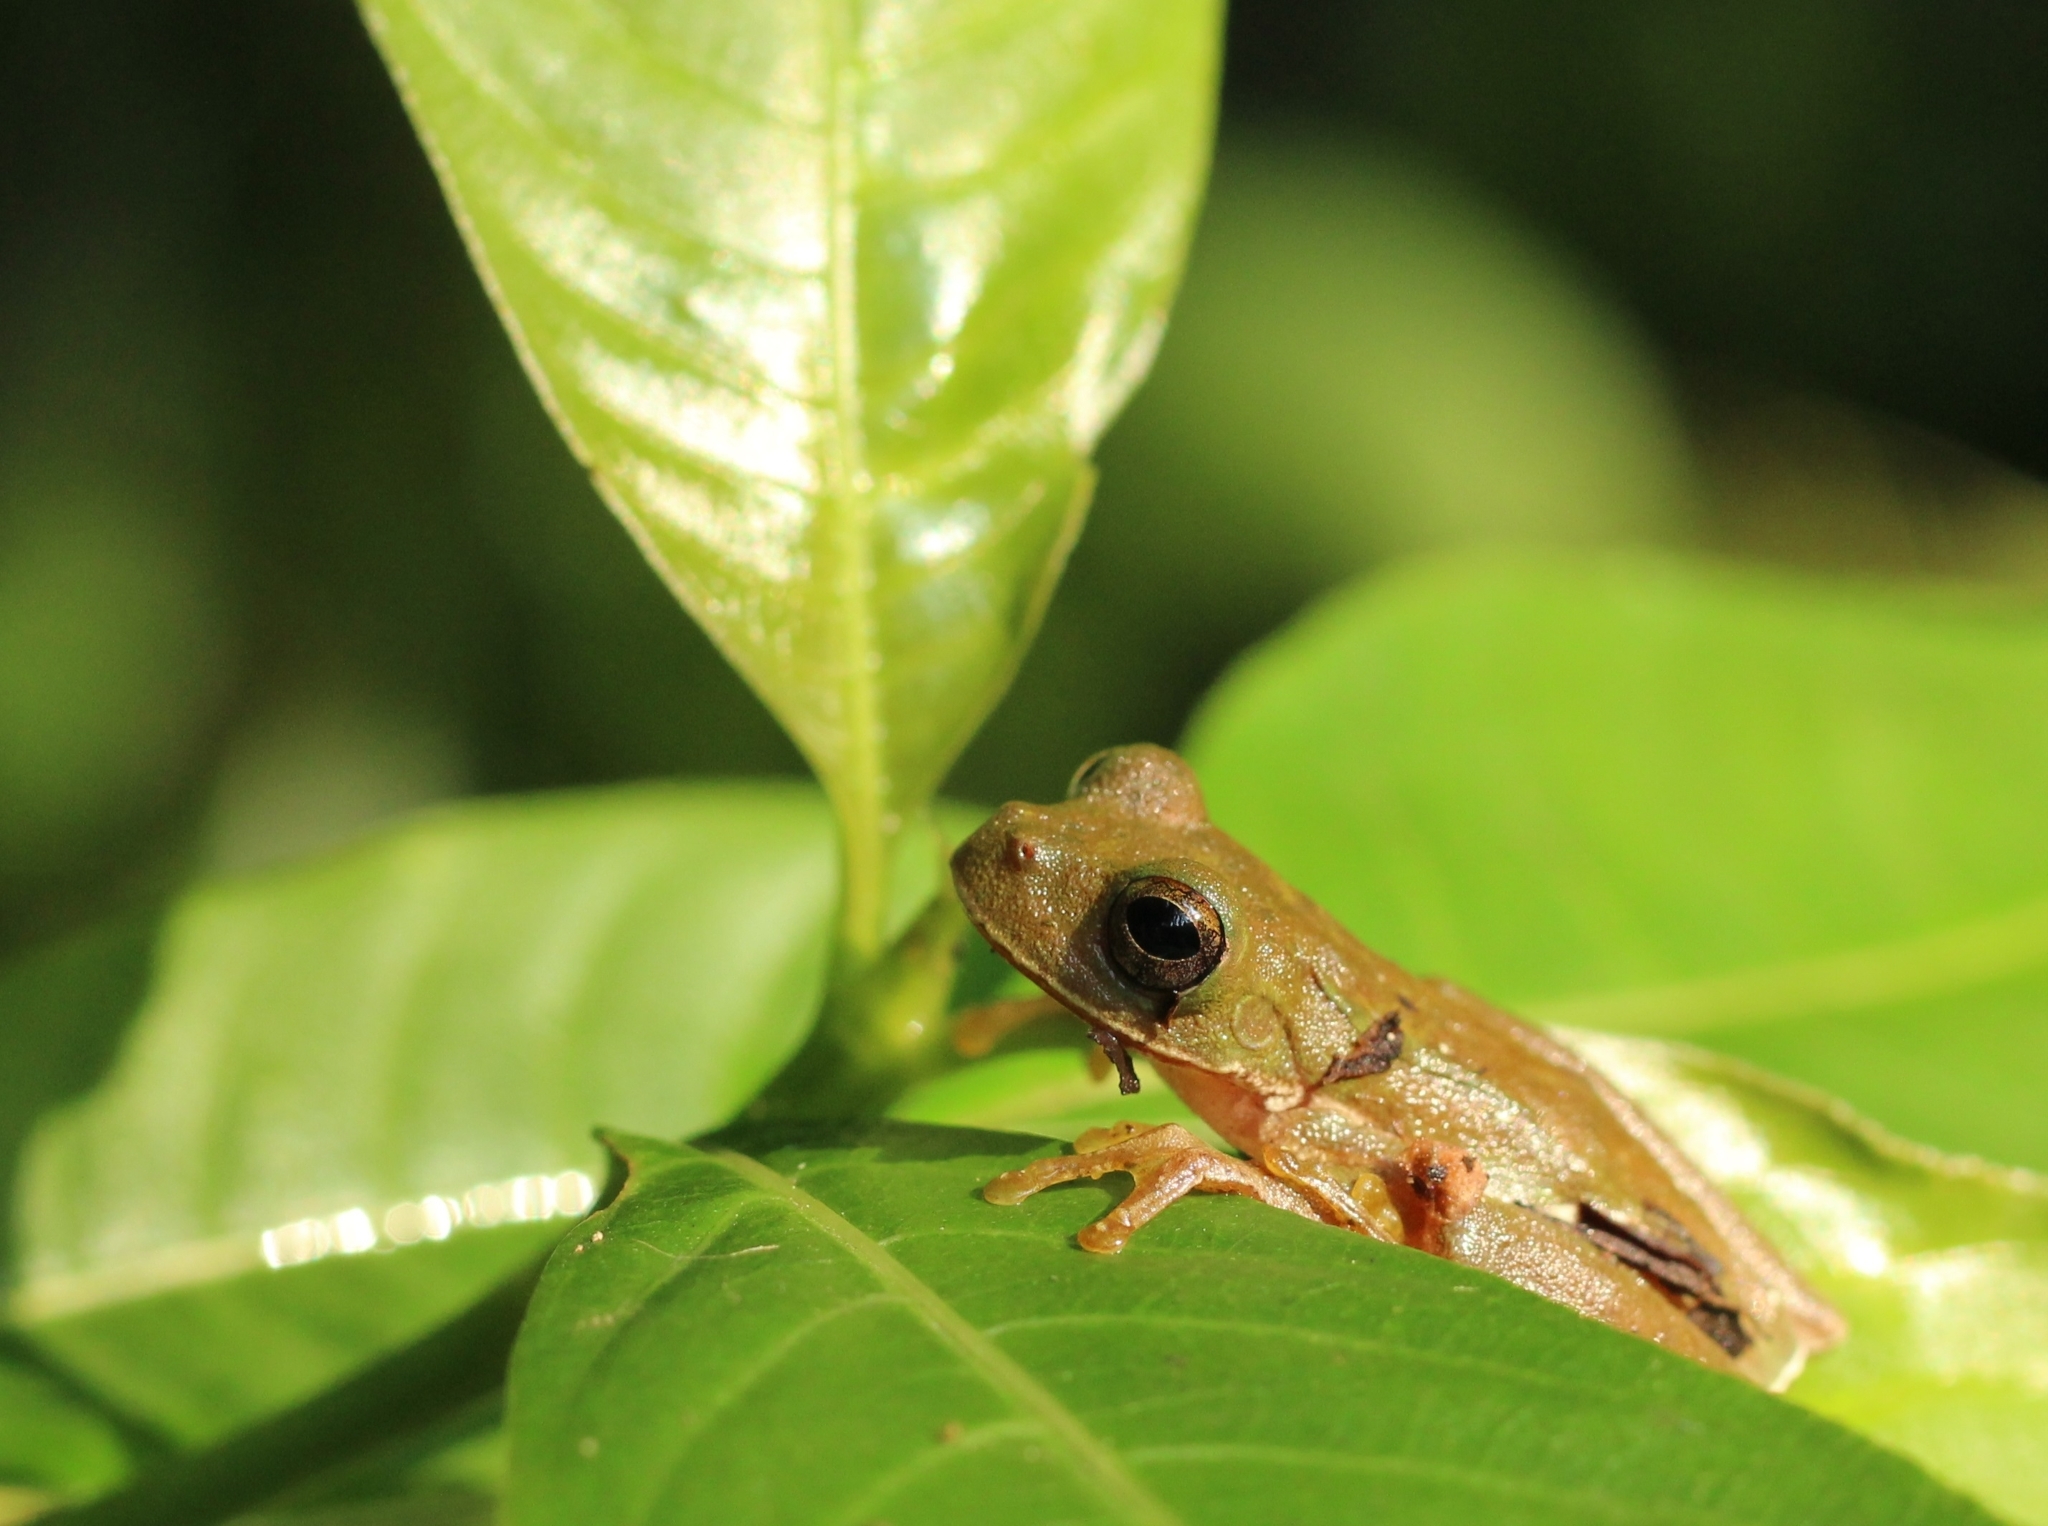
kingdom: Animalia
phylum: Chordata
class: Amphibia
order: Anura
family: Hylidae
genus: Rheohyla
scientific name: Rheohyla miotympanum
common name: Small-eard hyla
